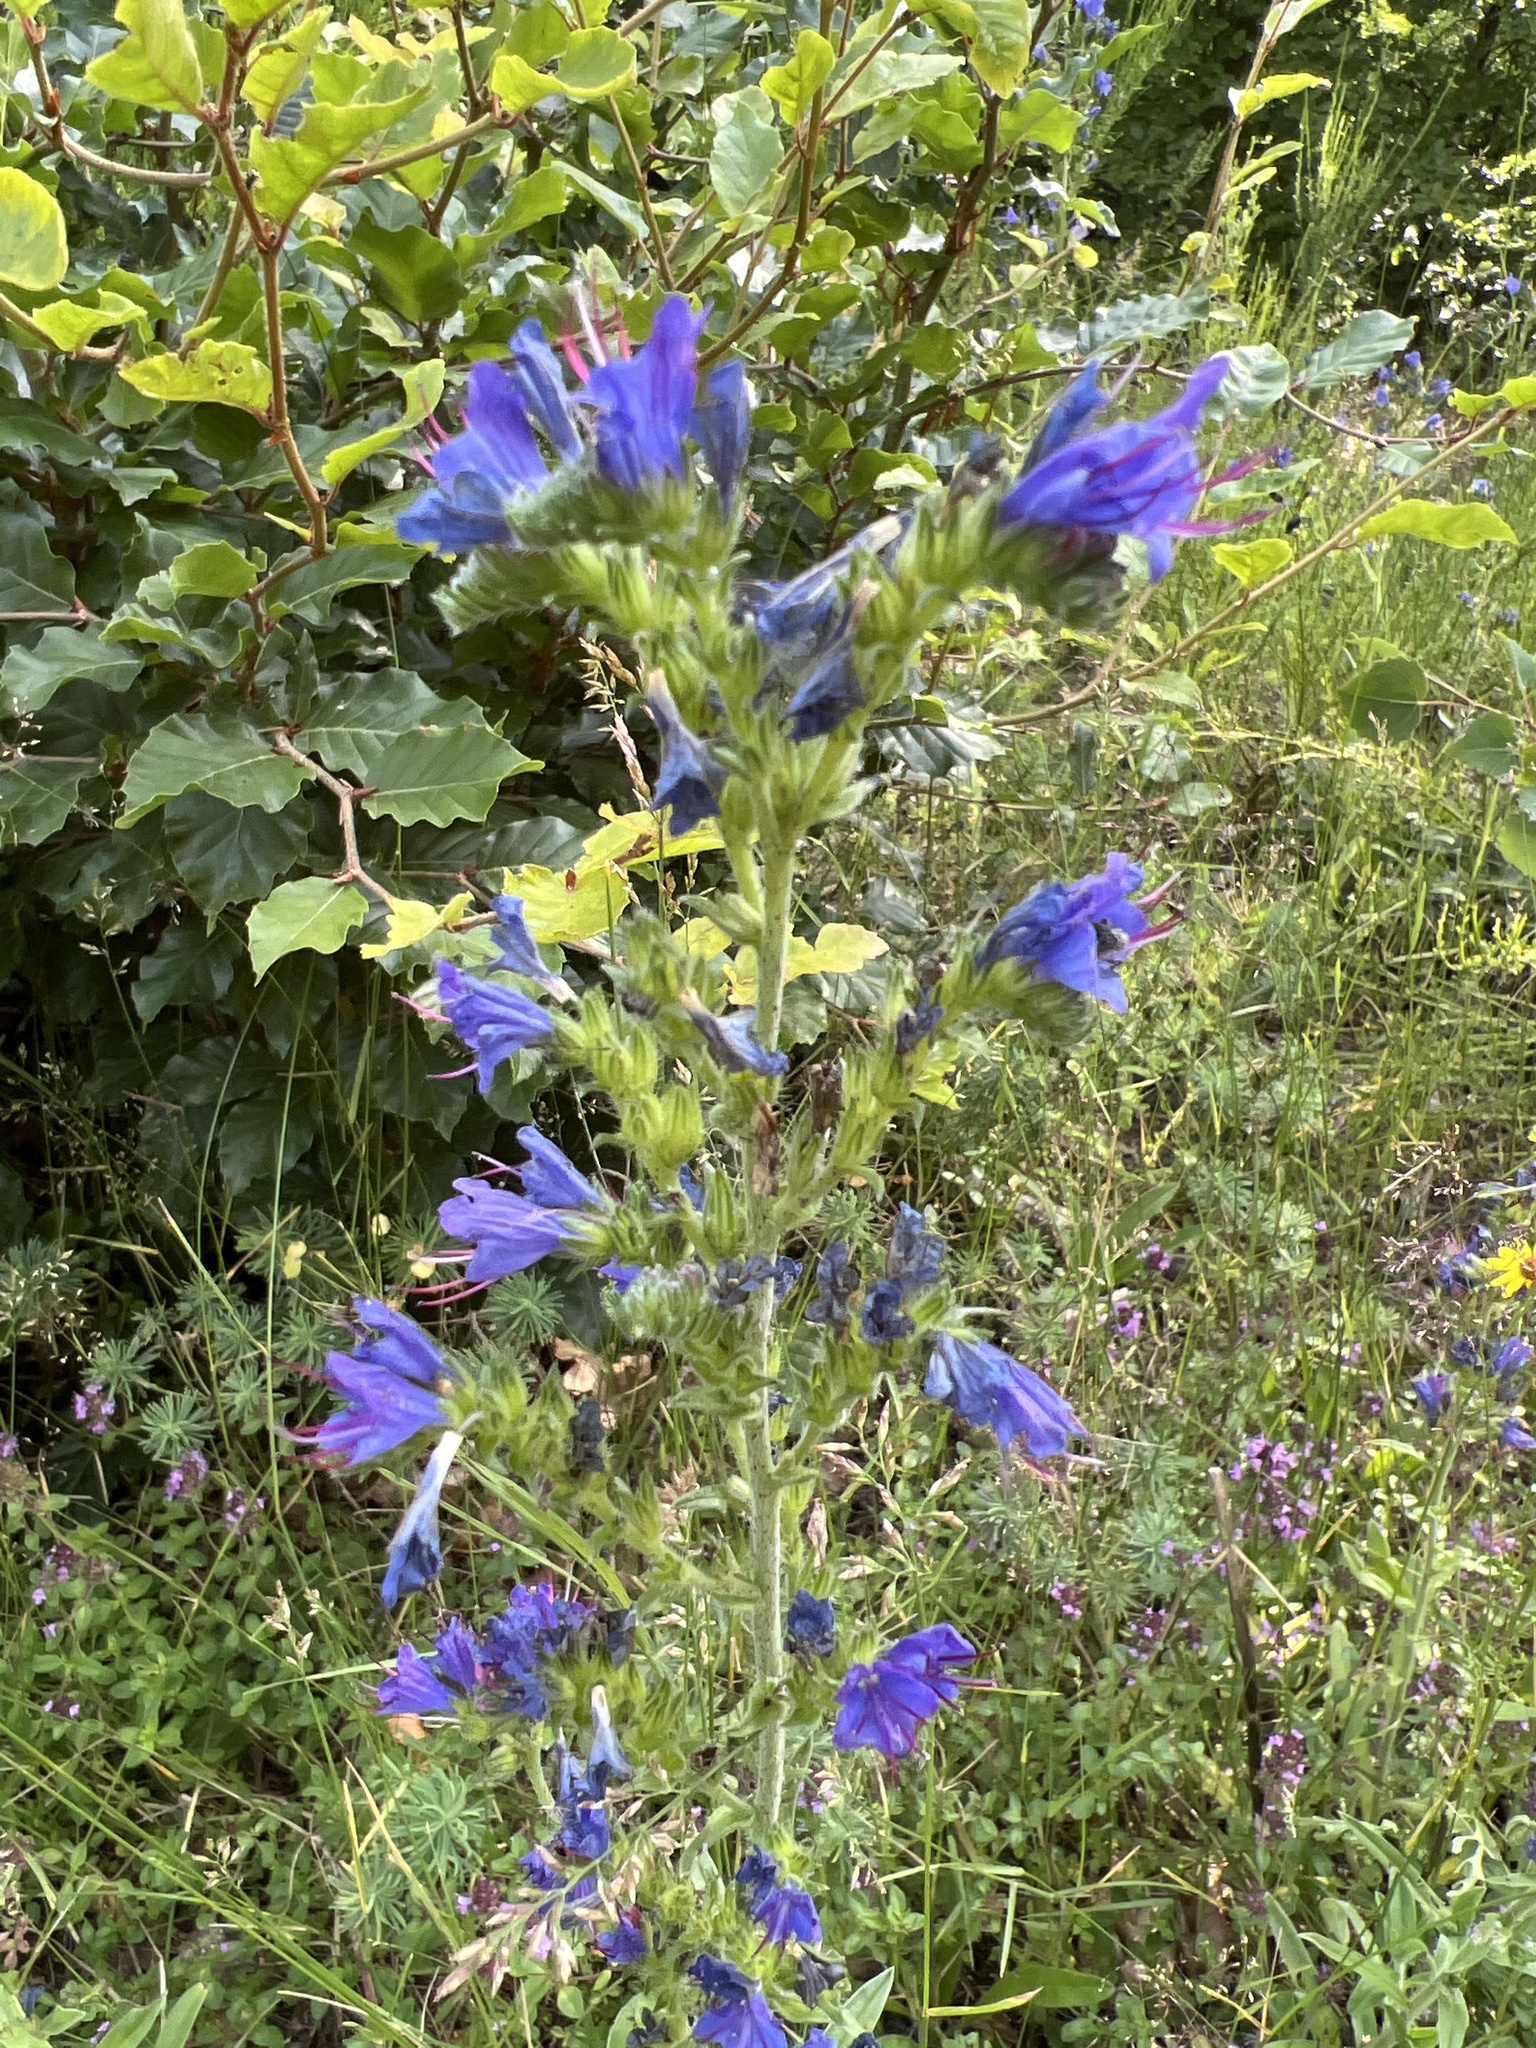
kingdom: Plantae
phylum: Tracheophyta
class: Magnoliopsida
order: Boraginales
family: Boraginaceae
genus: Echium
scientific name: Echium vulgare
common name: Common viper's bugloss
